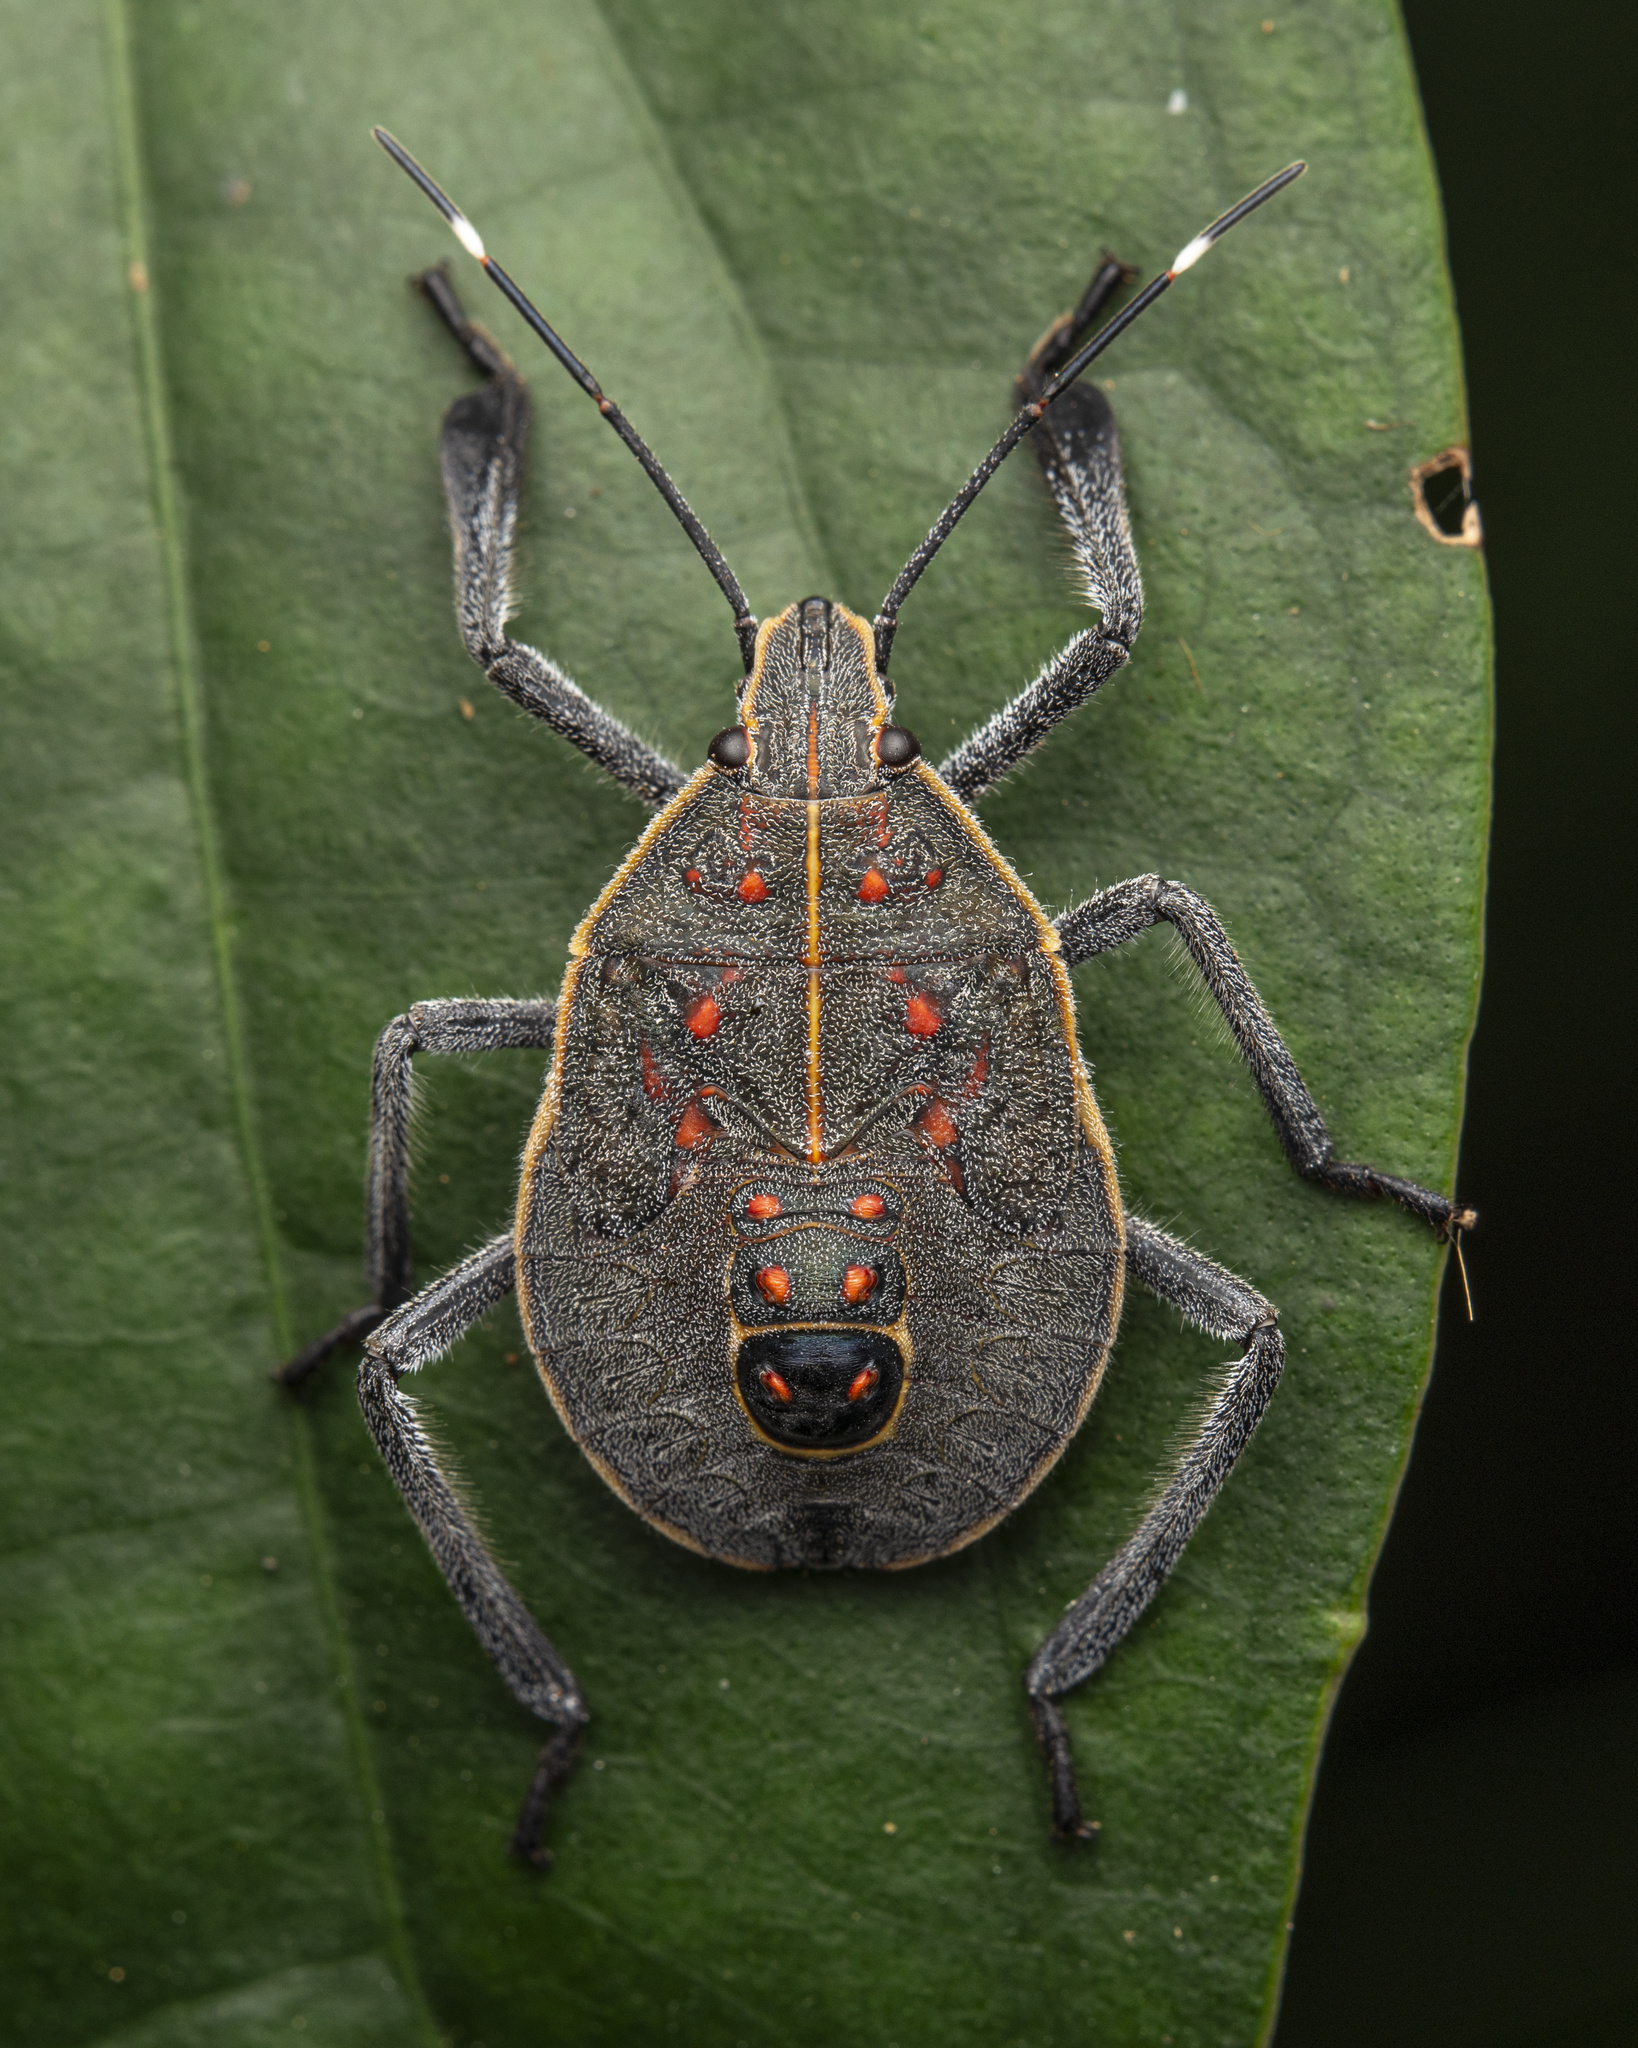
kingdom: Animalia
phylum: Arthropoda
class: Insecta
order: Hemiptera
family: Pentatomidae
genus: Erthesina
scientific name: Erthesina fullo
